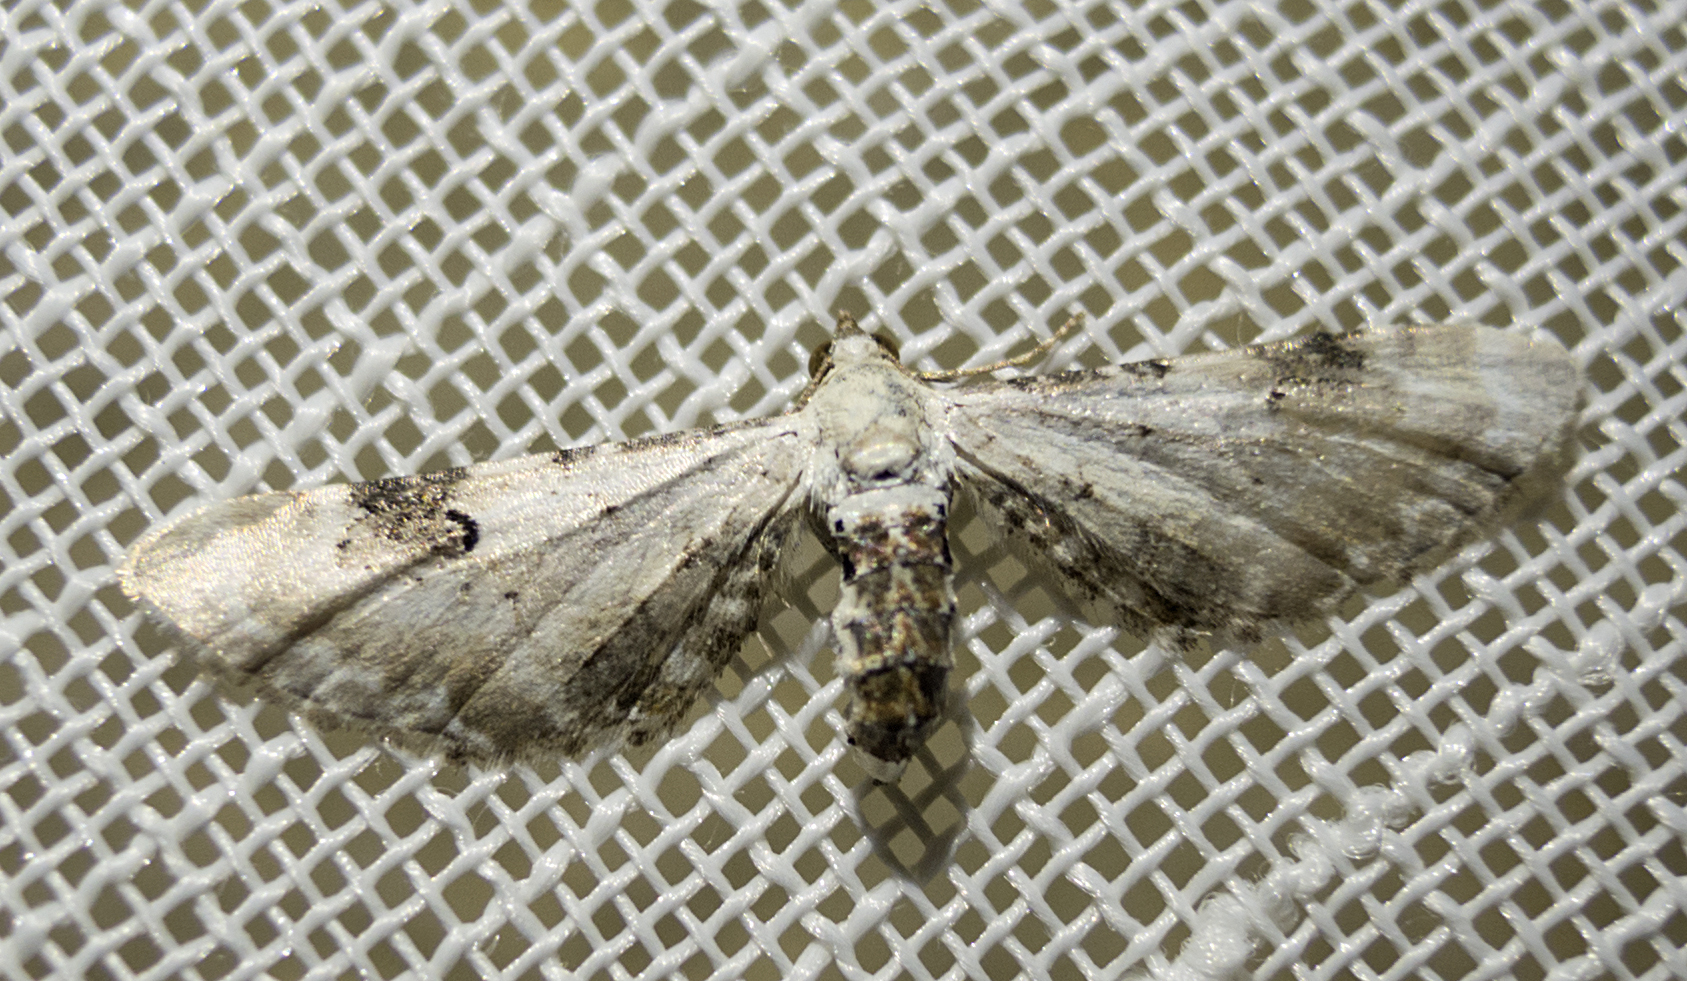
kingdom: Animalia
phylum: Arthropoda
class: Insecta
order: Lepidoptera
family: Geometridae
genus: Eupithecia
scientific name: Eupithecia centaureata
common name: Lime-speck pug
